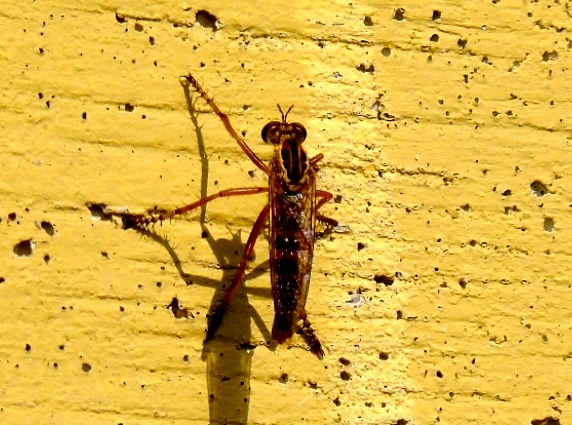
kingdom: Animalia
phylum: Arthropoda
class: Insecta
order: Diptera
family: Asilidae
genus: Diogmites
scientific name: Diogmites
